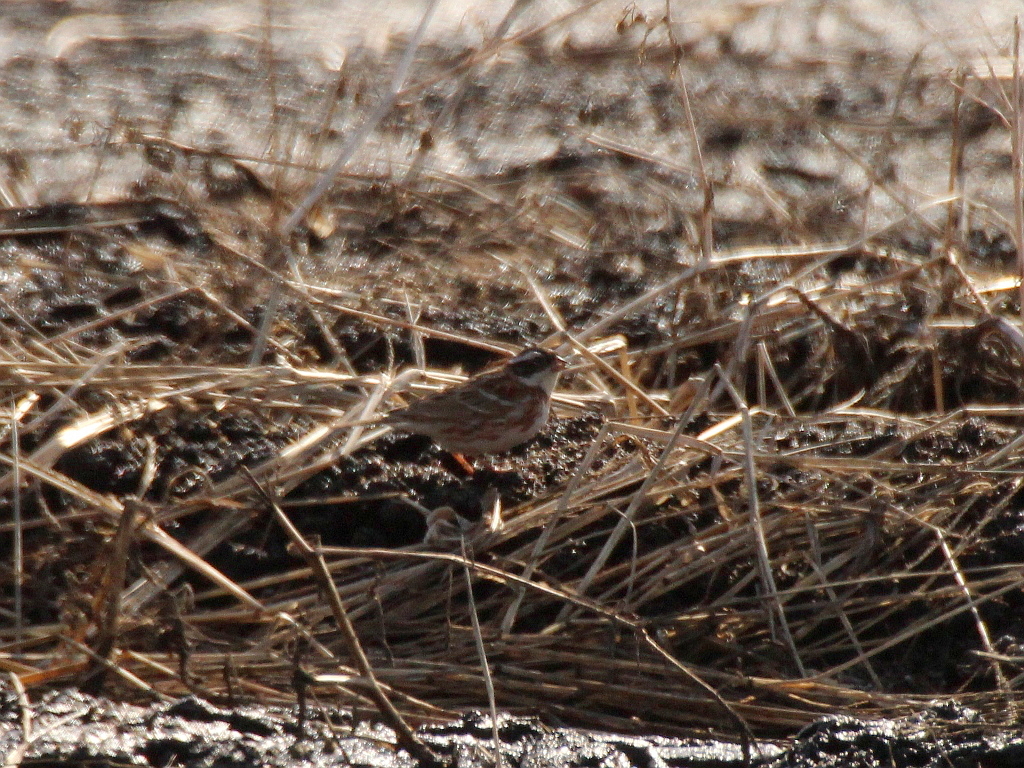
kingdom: Animalia
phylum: Chordata
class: Aves
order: Passeriformes
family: Emberizidae
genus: Emberiza
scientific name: Emberiza rustica
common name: Rustic bunting
